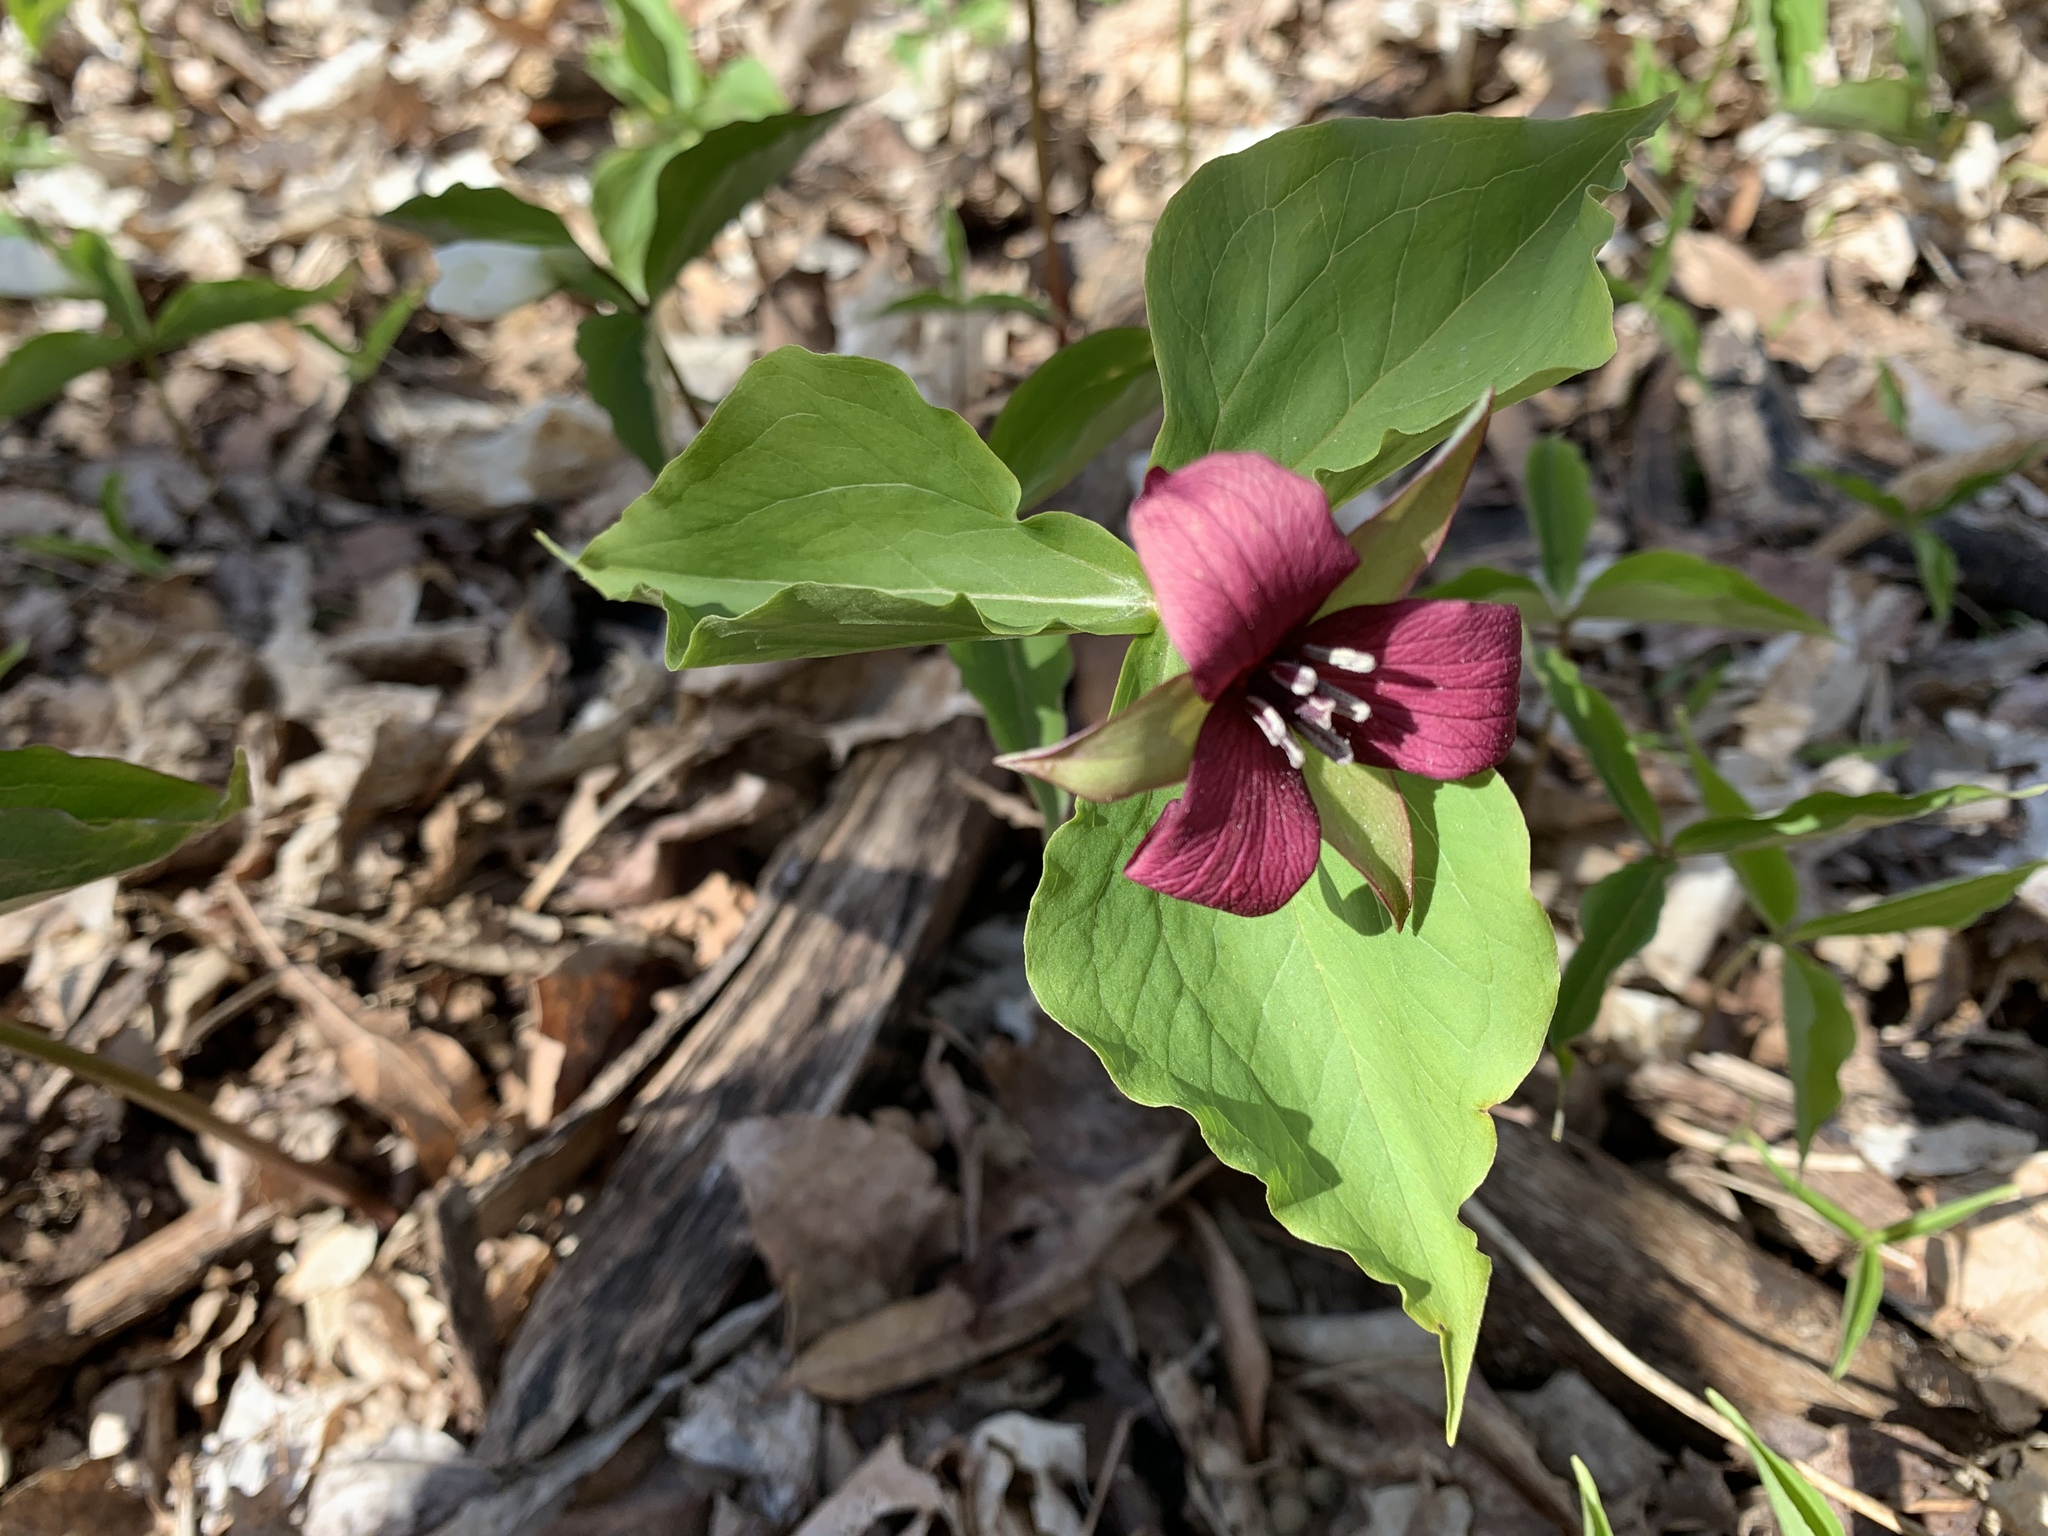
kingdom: Plantae
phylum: Tracheophyta
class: Liliopsida
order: Liliales
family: Melanthiaceae
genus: Trillium
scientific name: Trillium erectum
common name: Purple trillium
